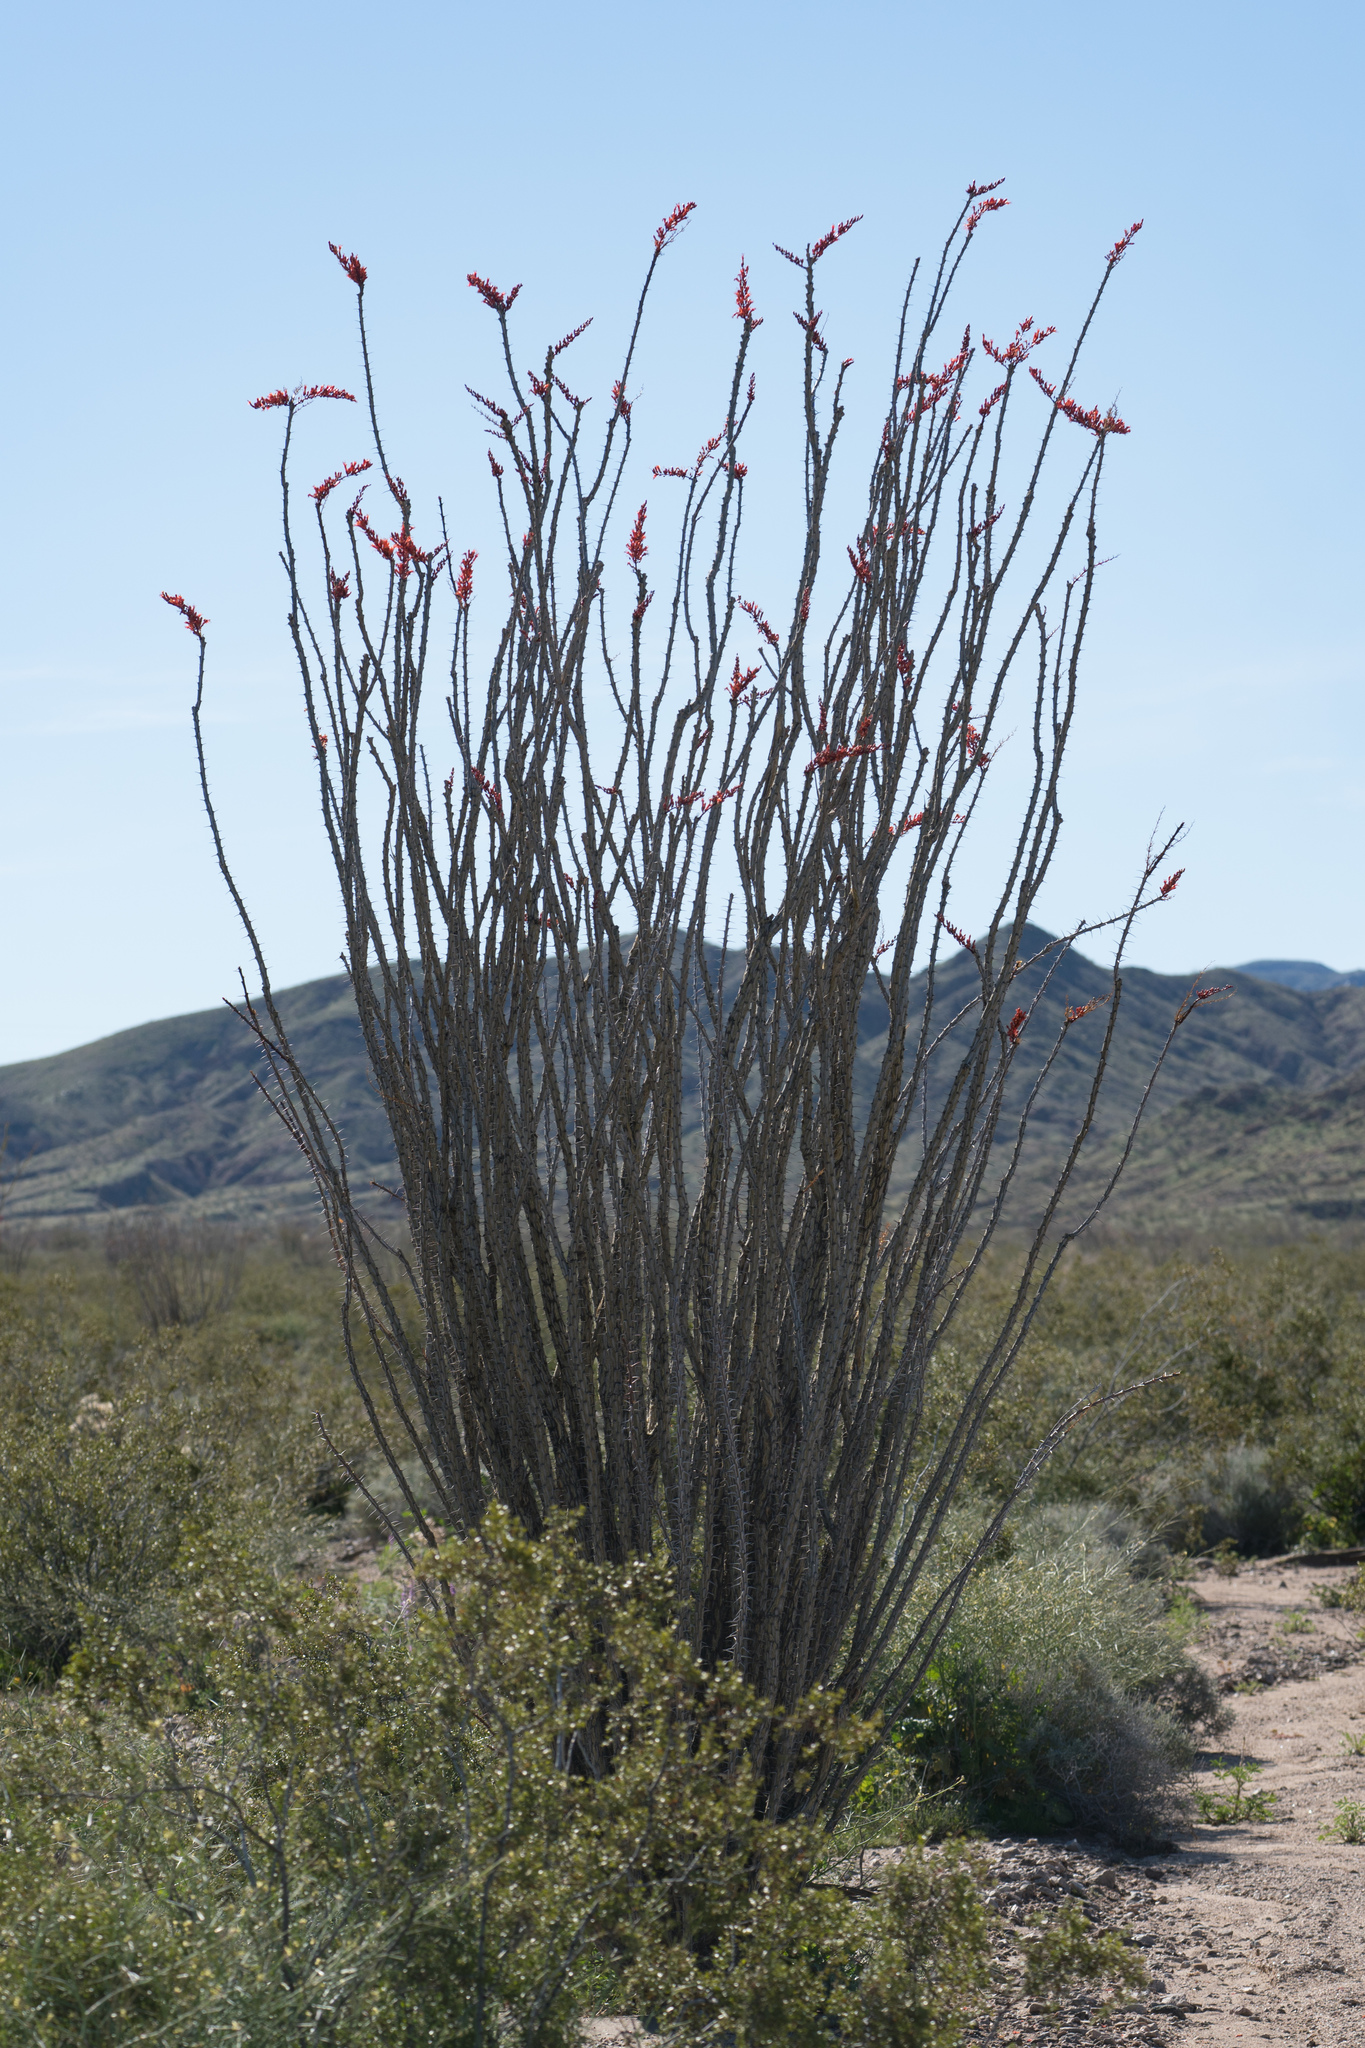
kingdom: Plantae
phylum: Tracheophyta
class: Magnoliopsida
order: Ericales
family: Fouquieriaceae
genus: Fouquieria
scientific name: Fouquieria splendens
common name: Vine-cactus
